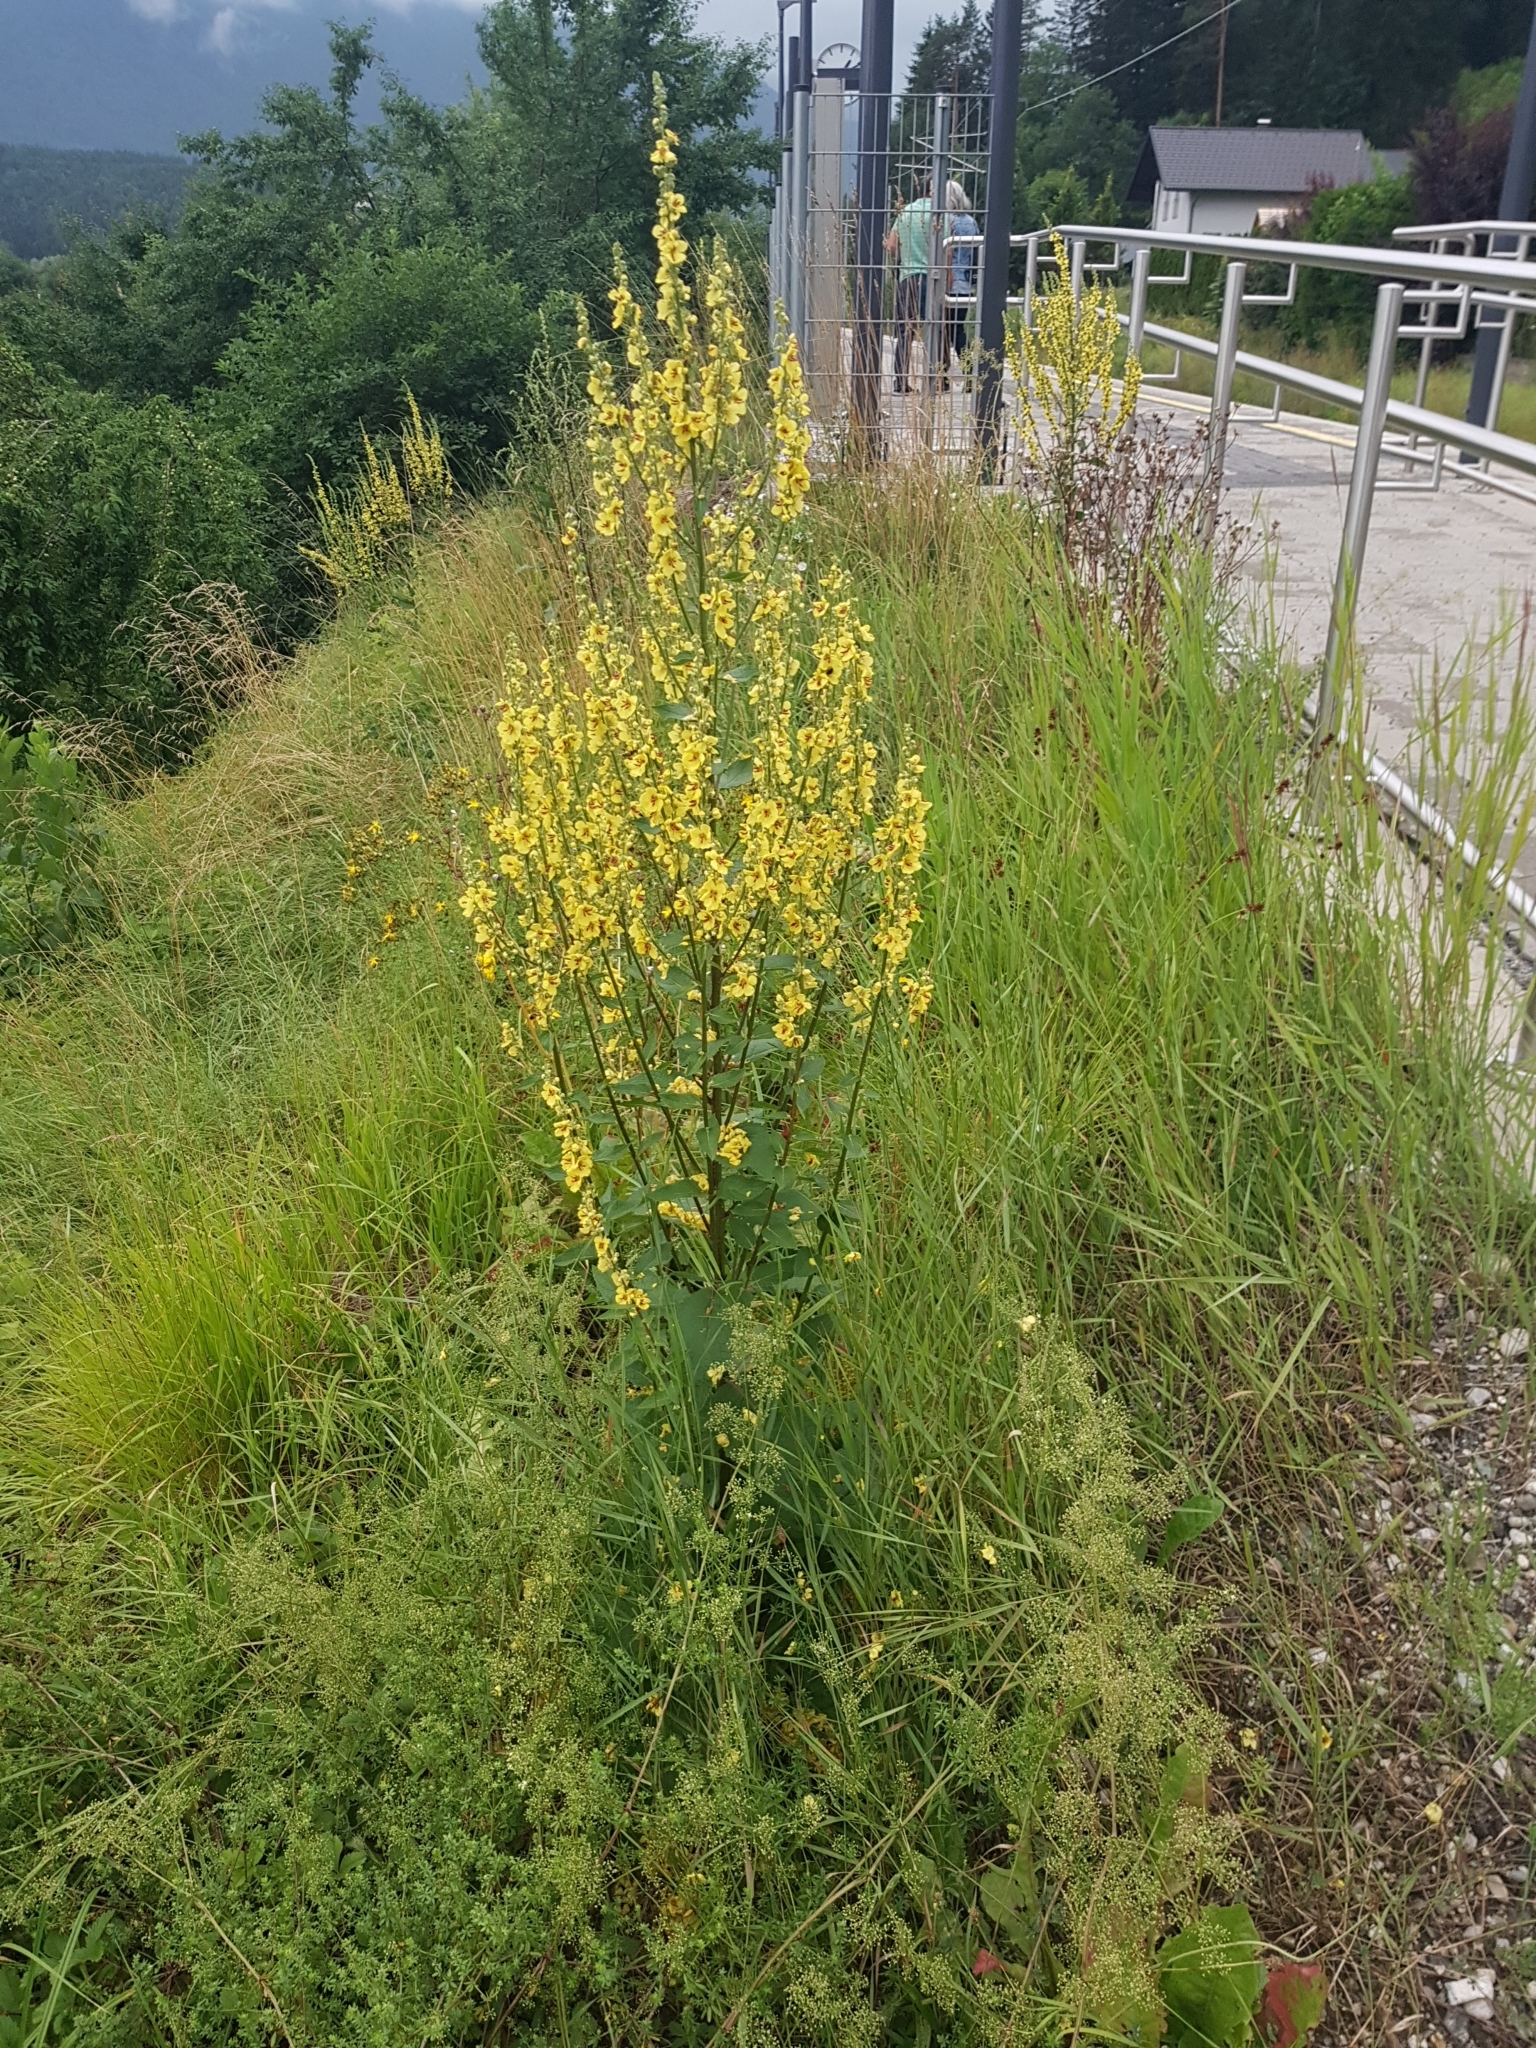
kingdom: Plantae
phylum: Tracheophyta
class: Magnoliopsida
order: Lamiales
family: Scrophulariaceae
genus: Verbascum
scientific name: Verbascum chaixii
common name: Nettle-leaved mullein
